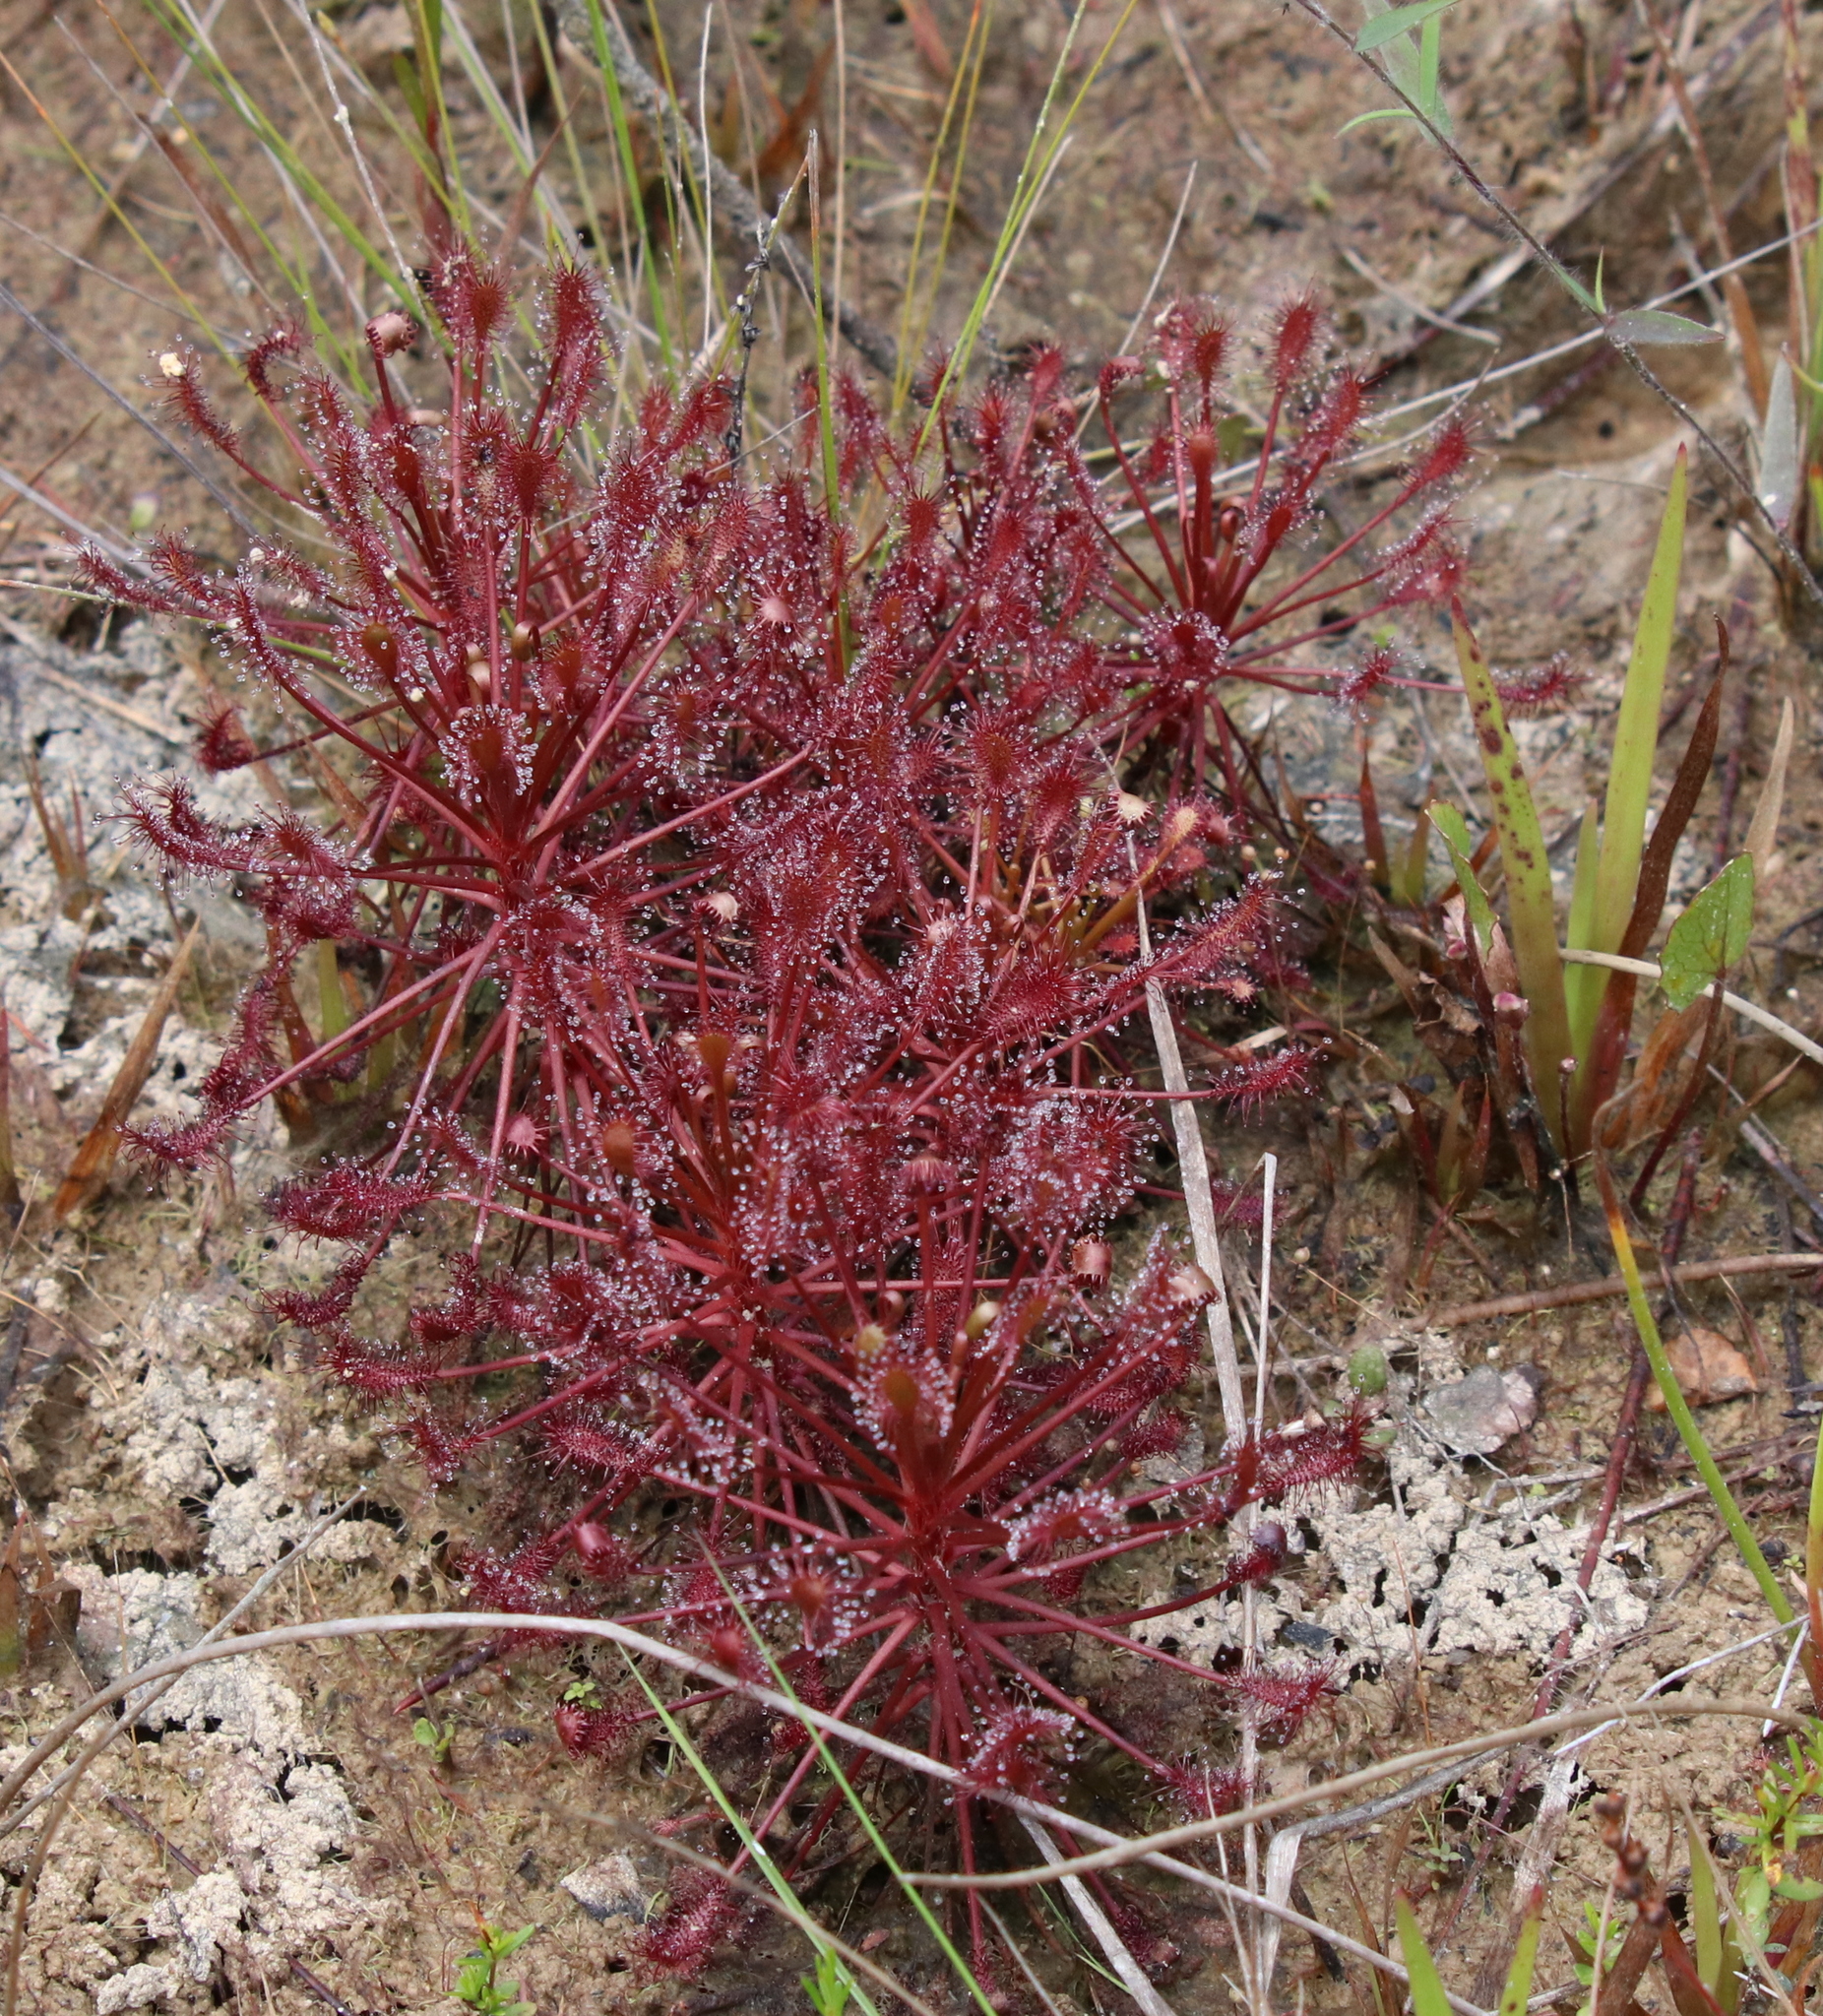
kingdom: Plantae
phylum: Tracheophyta
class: Magnoliopsida
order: Caryophyllales
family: Droseraceae
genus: Drosera
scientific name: Drosera intermedia
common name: Oblong-leaved sundew
